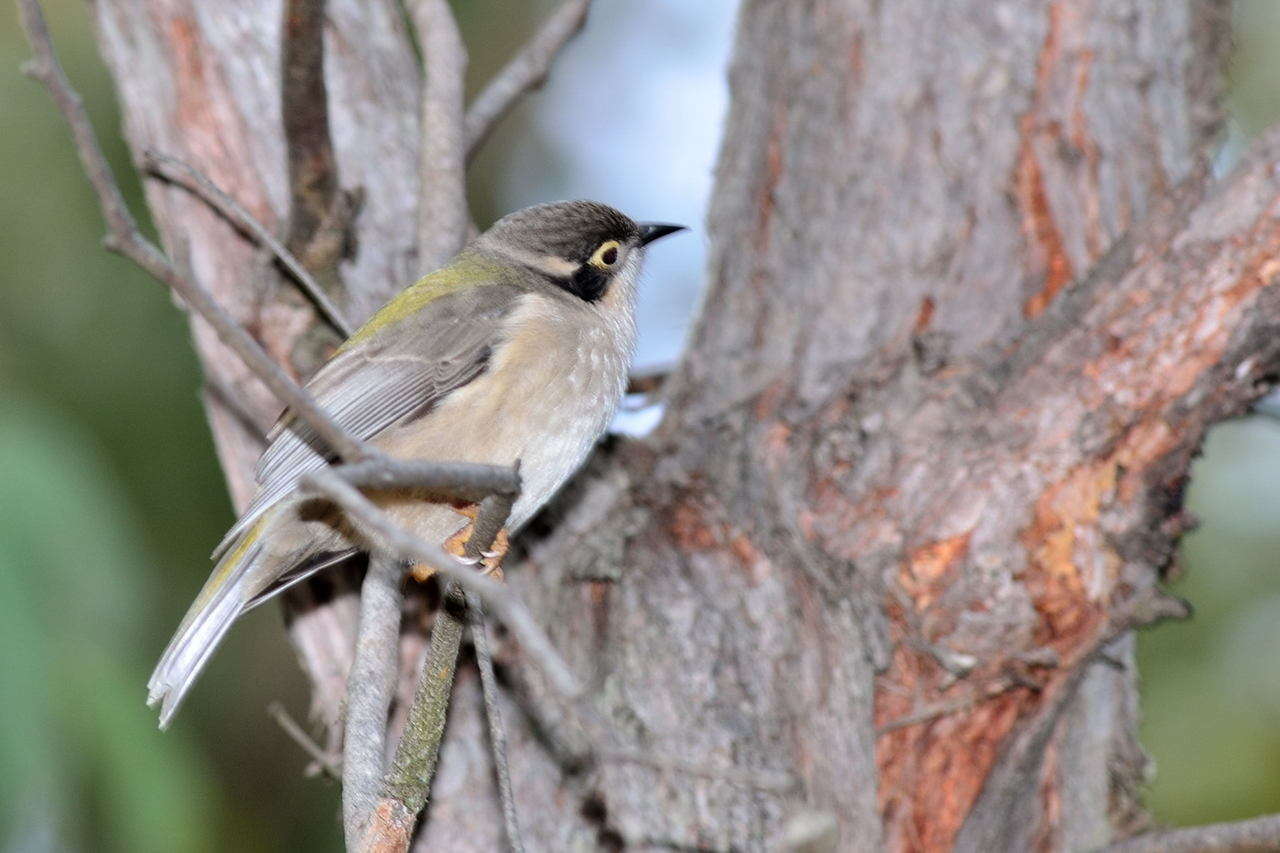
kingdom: Animalia
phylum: Chordata
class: Aves
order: Passeriformes
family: Meliphagidae
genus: Melithreptus
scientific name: Melithreptus brevirostris
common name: Brown-headed honeyeater
